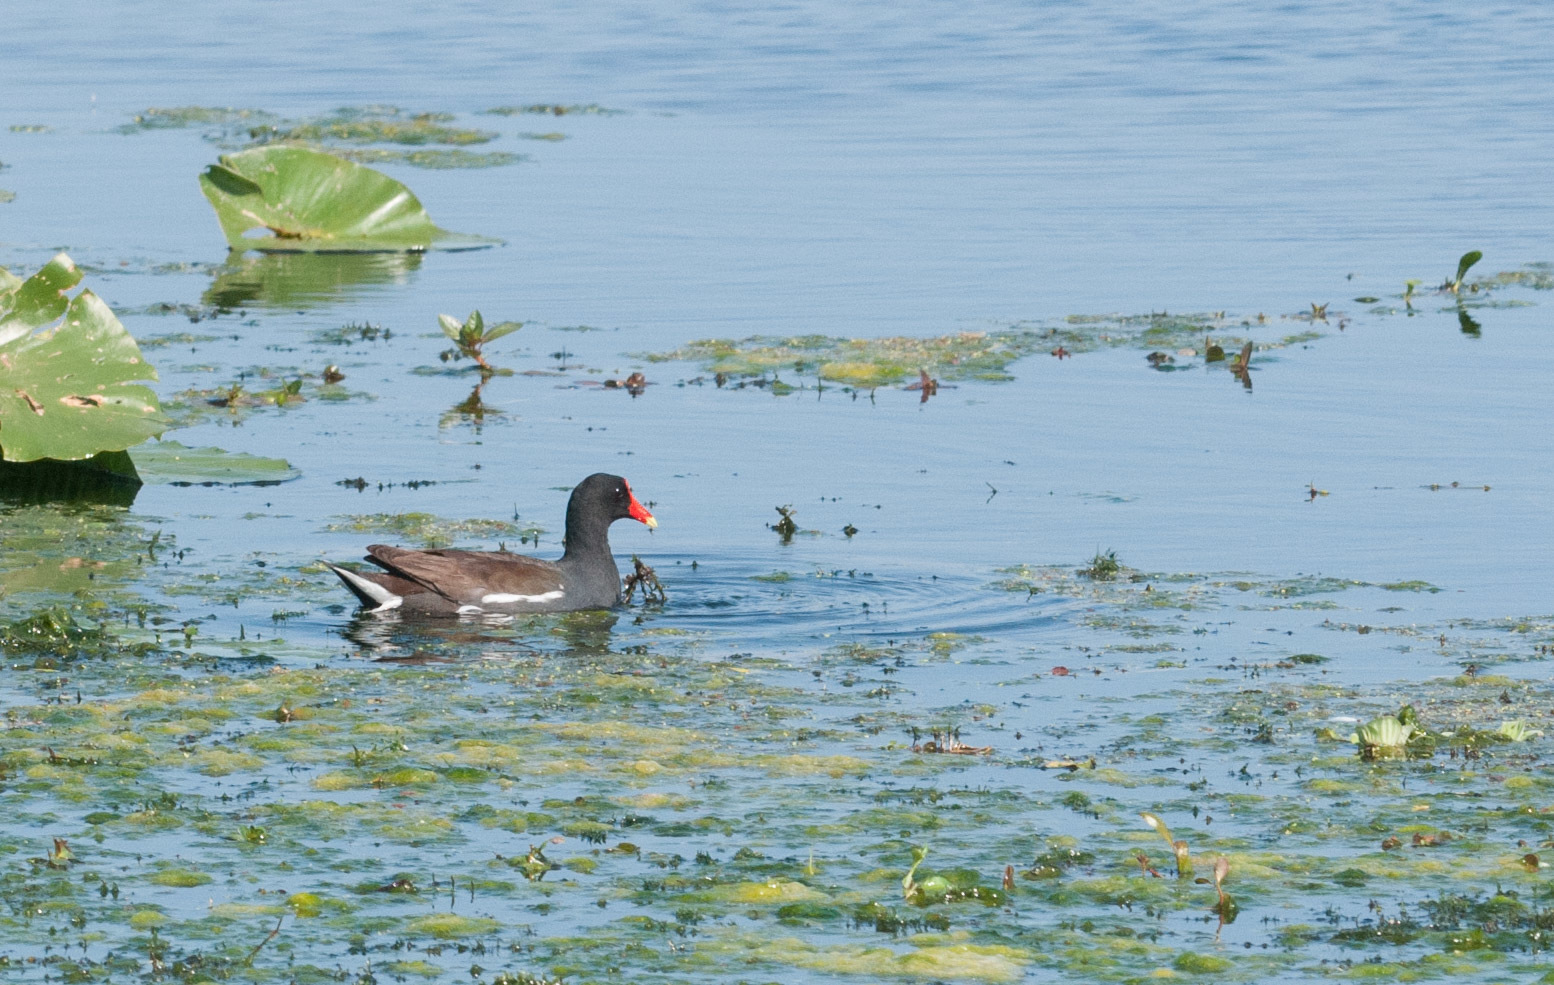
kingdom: Animalia
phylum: Chordata
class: Aves
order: Gruiformes
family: Rallidae
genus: Gallinula
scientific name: Gallinula chloropus
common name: Common moorhen
